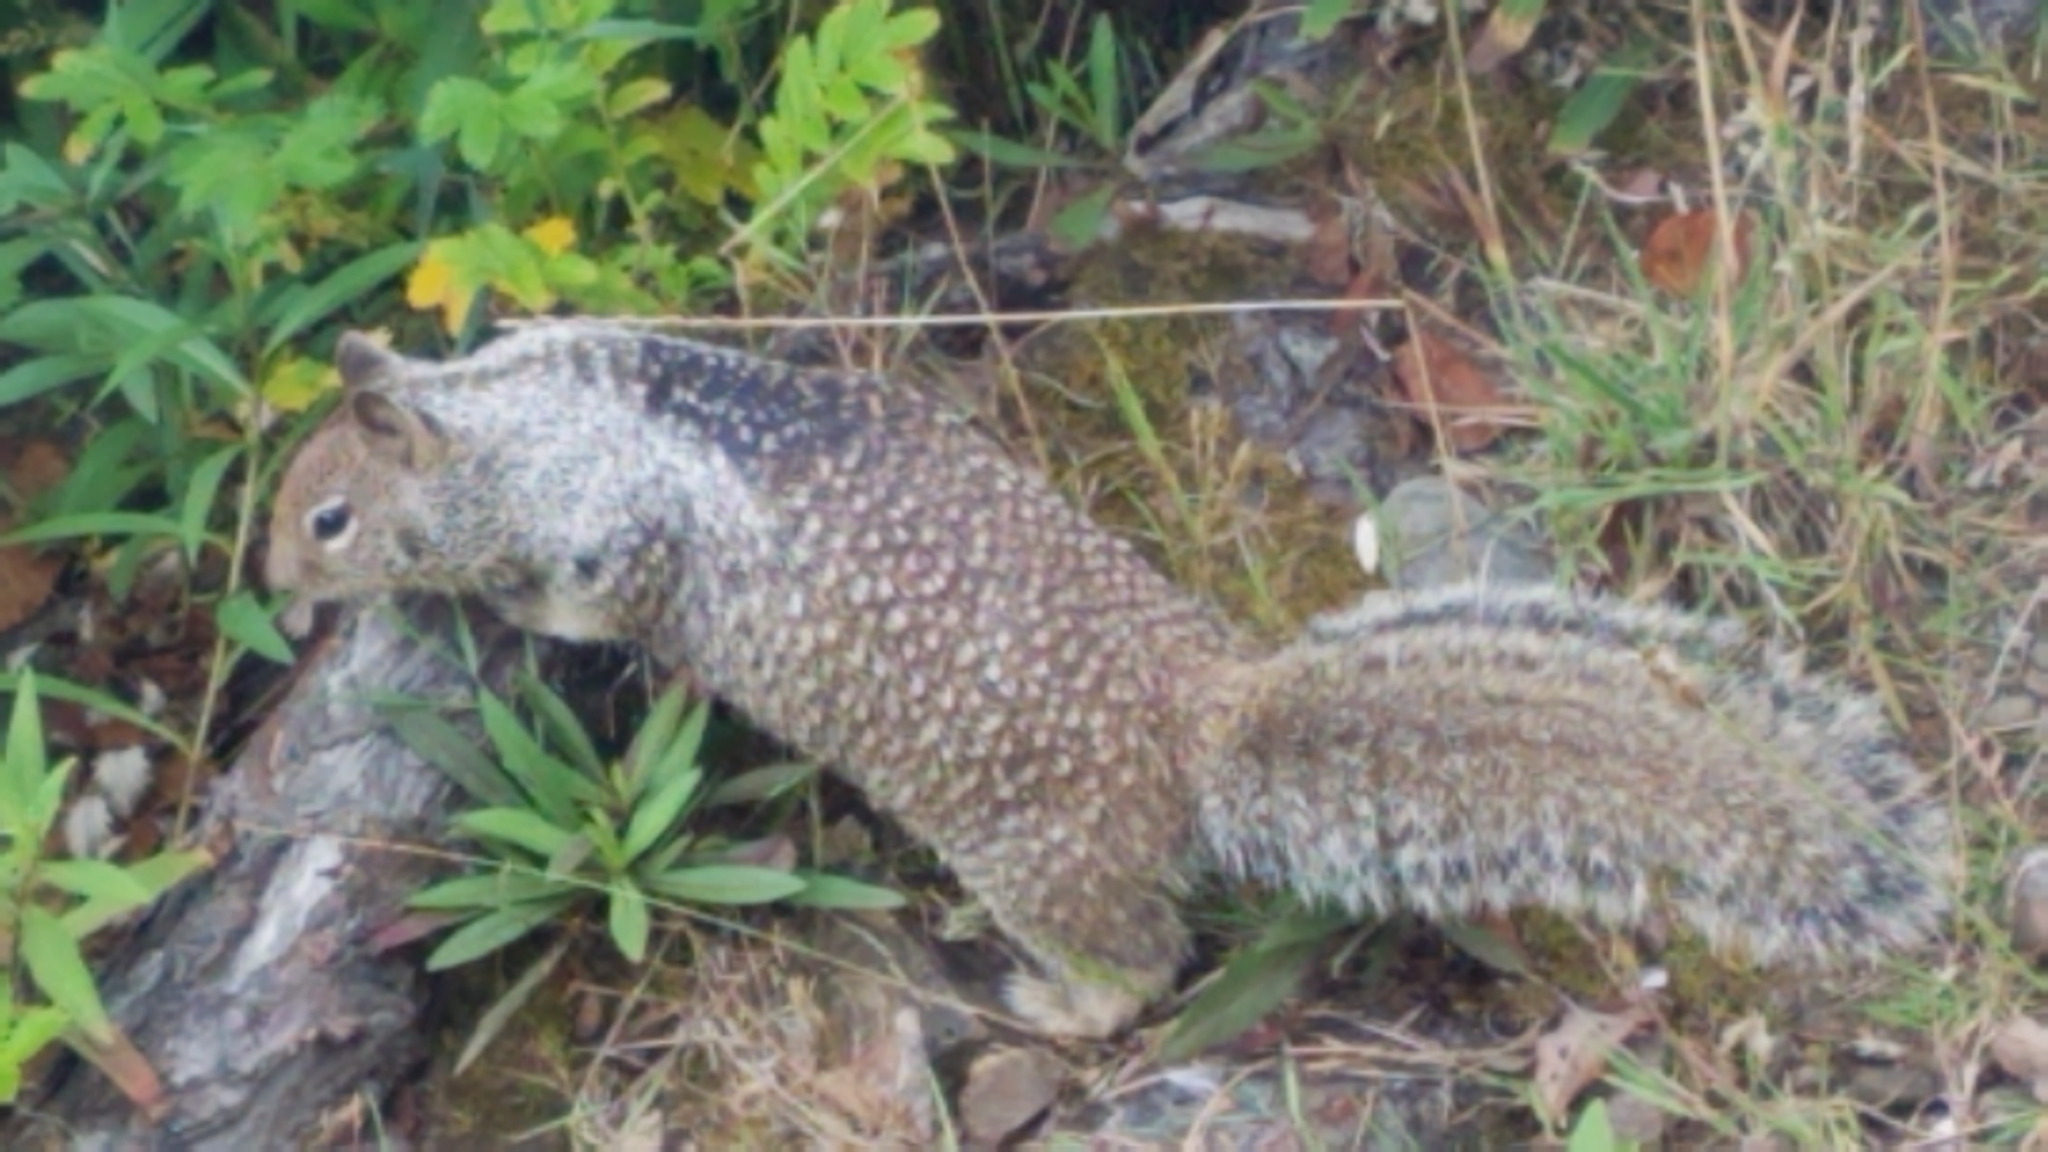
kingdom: Animalia
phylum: Chordata
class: Mammalia
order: Rodentia
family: Sciuridae
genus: Otospermophilus
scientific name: Otospermophilus beecheyi
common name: California ground squirrel
